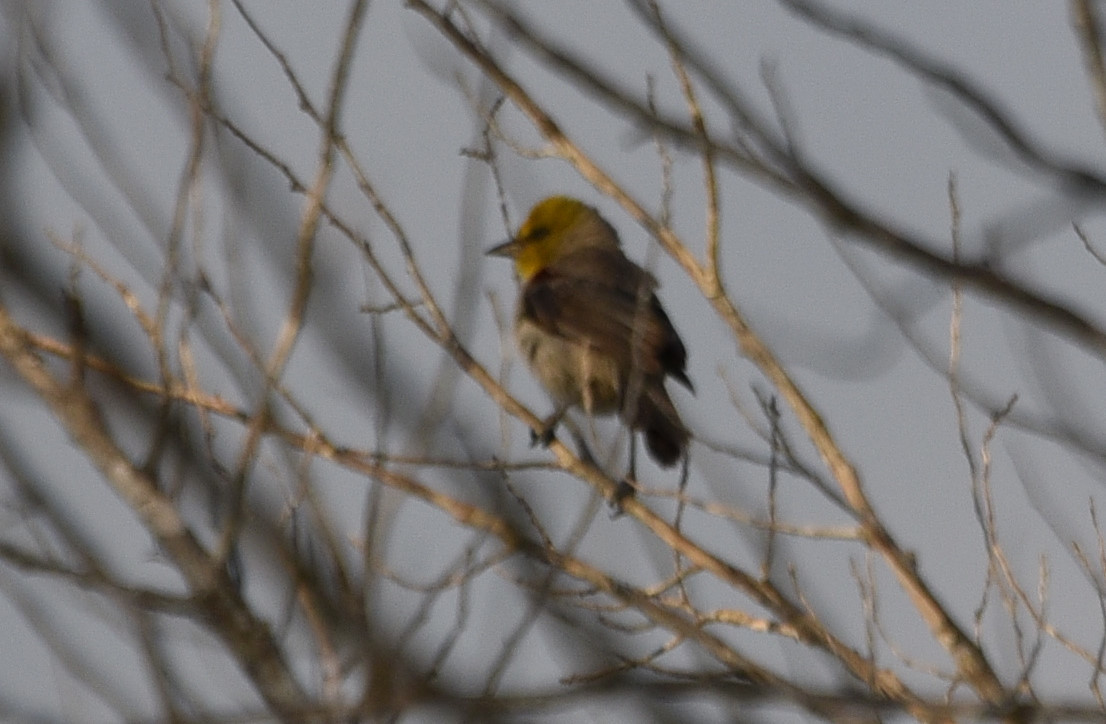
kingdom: Animalia
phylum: Chordata
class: Aves
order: Passeriformes
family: Remizidae
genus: Auriparus
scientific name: Auriparus flaviceps
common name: Verdin
